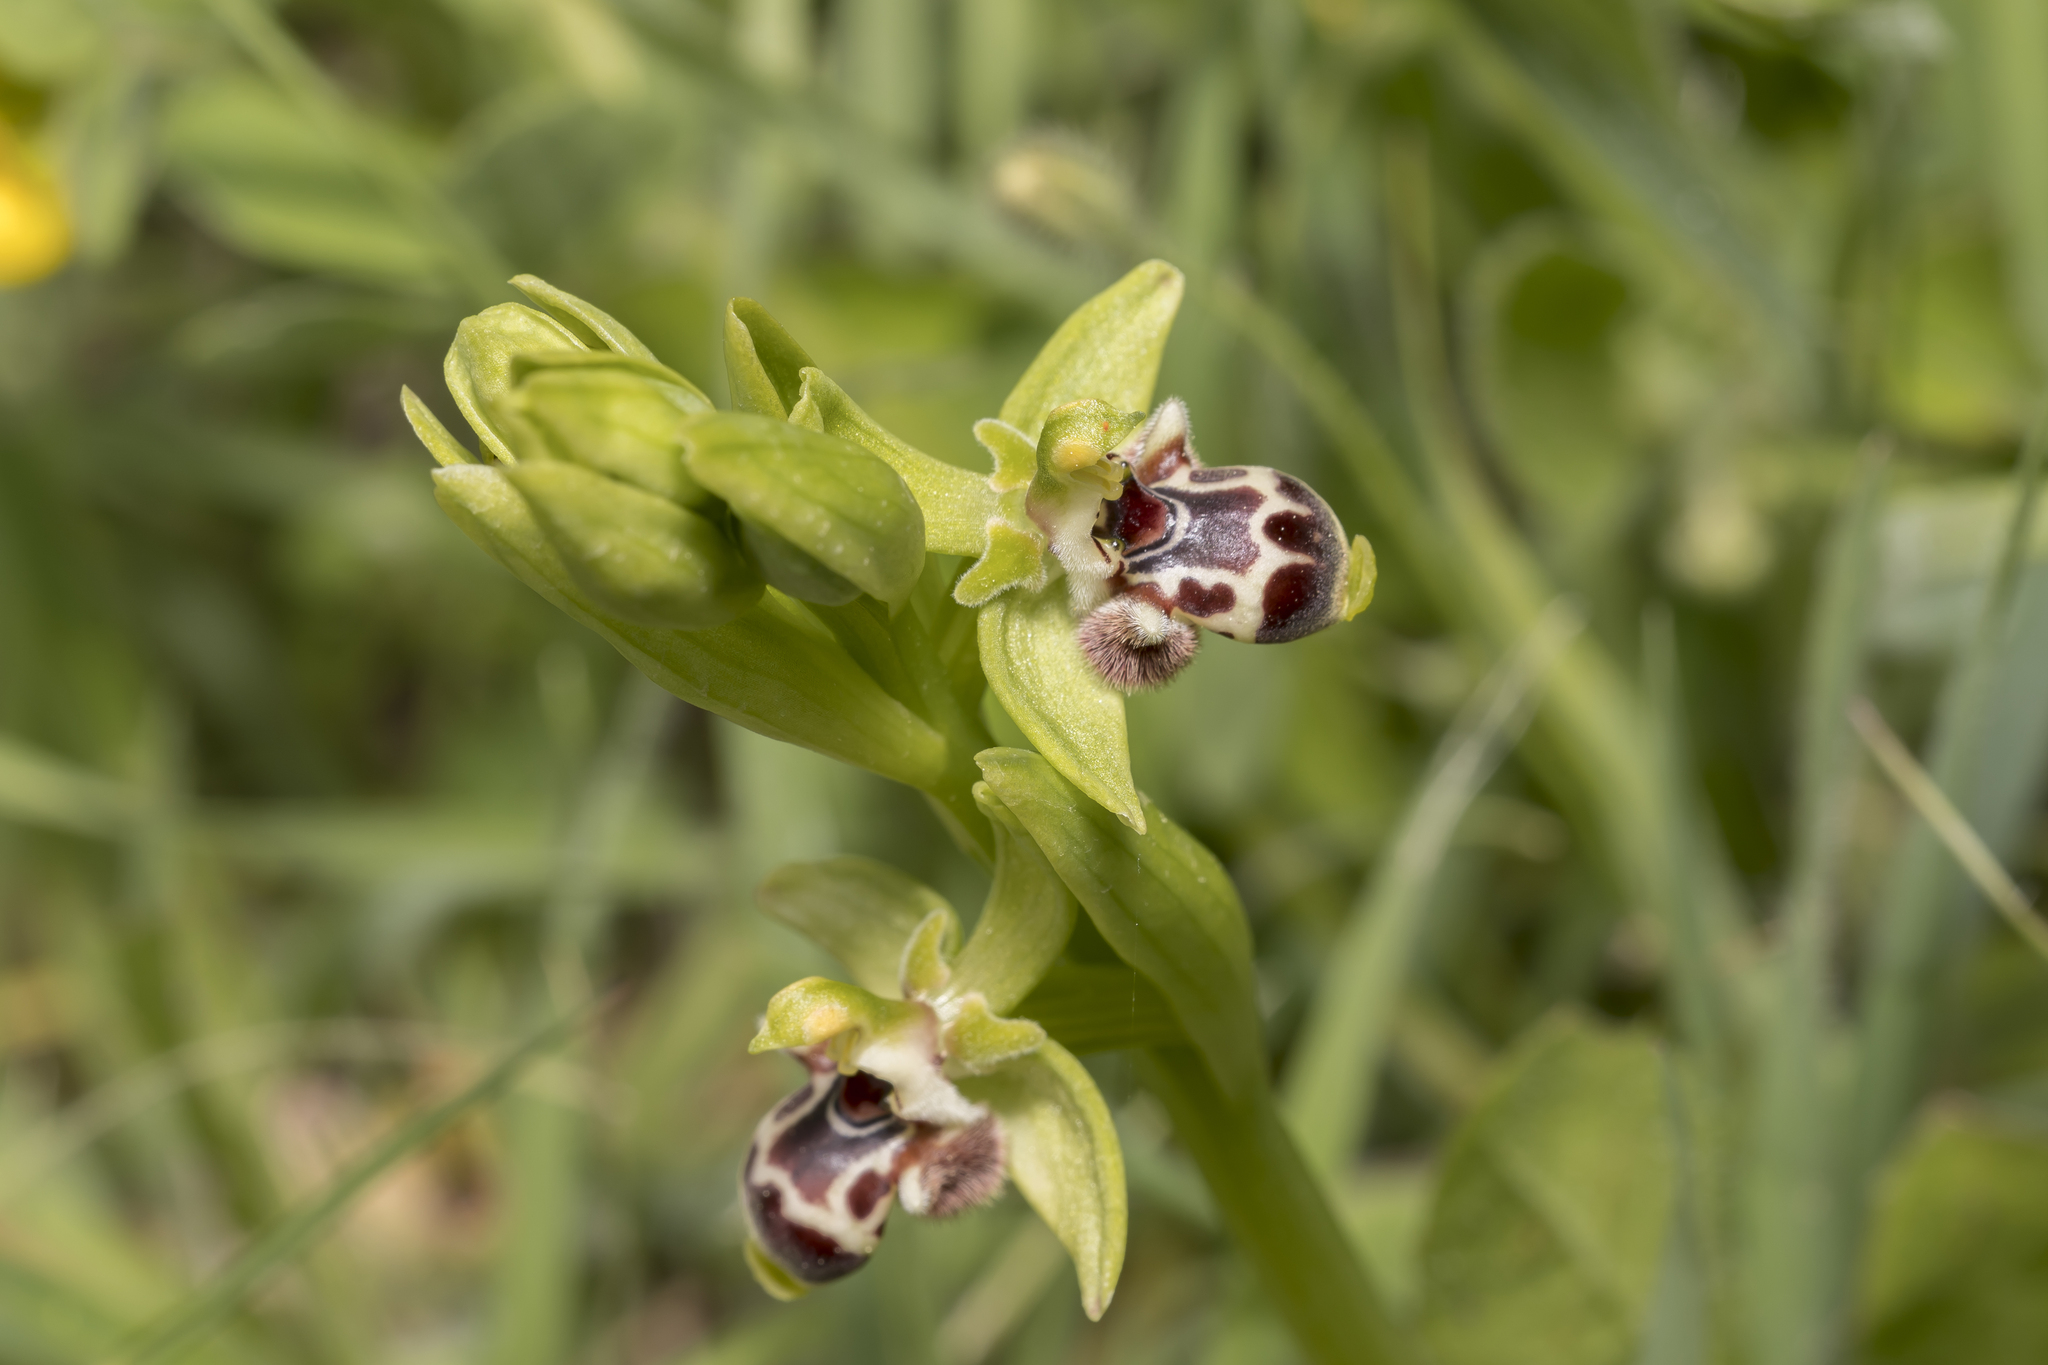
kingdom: Plantae
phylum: Tracheophyta
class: Liliopsida
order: Asparagales
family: Orchidaceae
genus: Ophrys
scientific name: Ophrys scolopax
